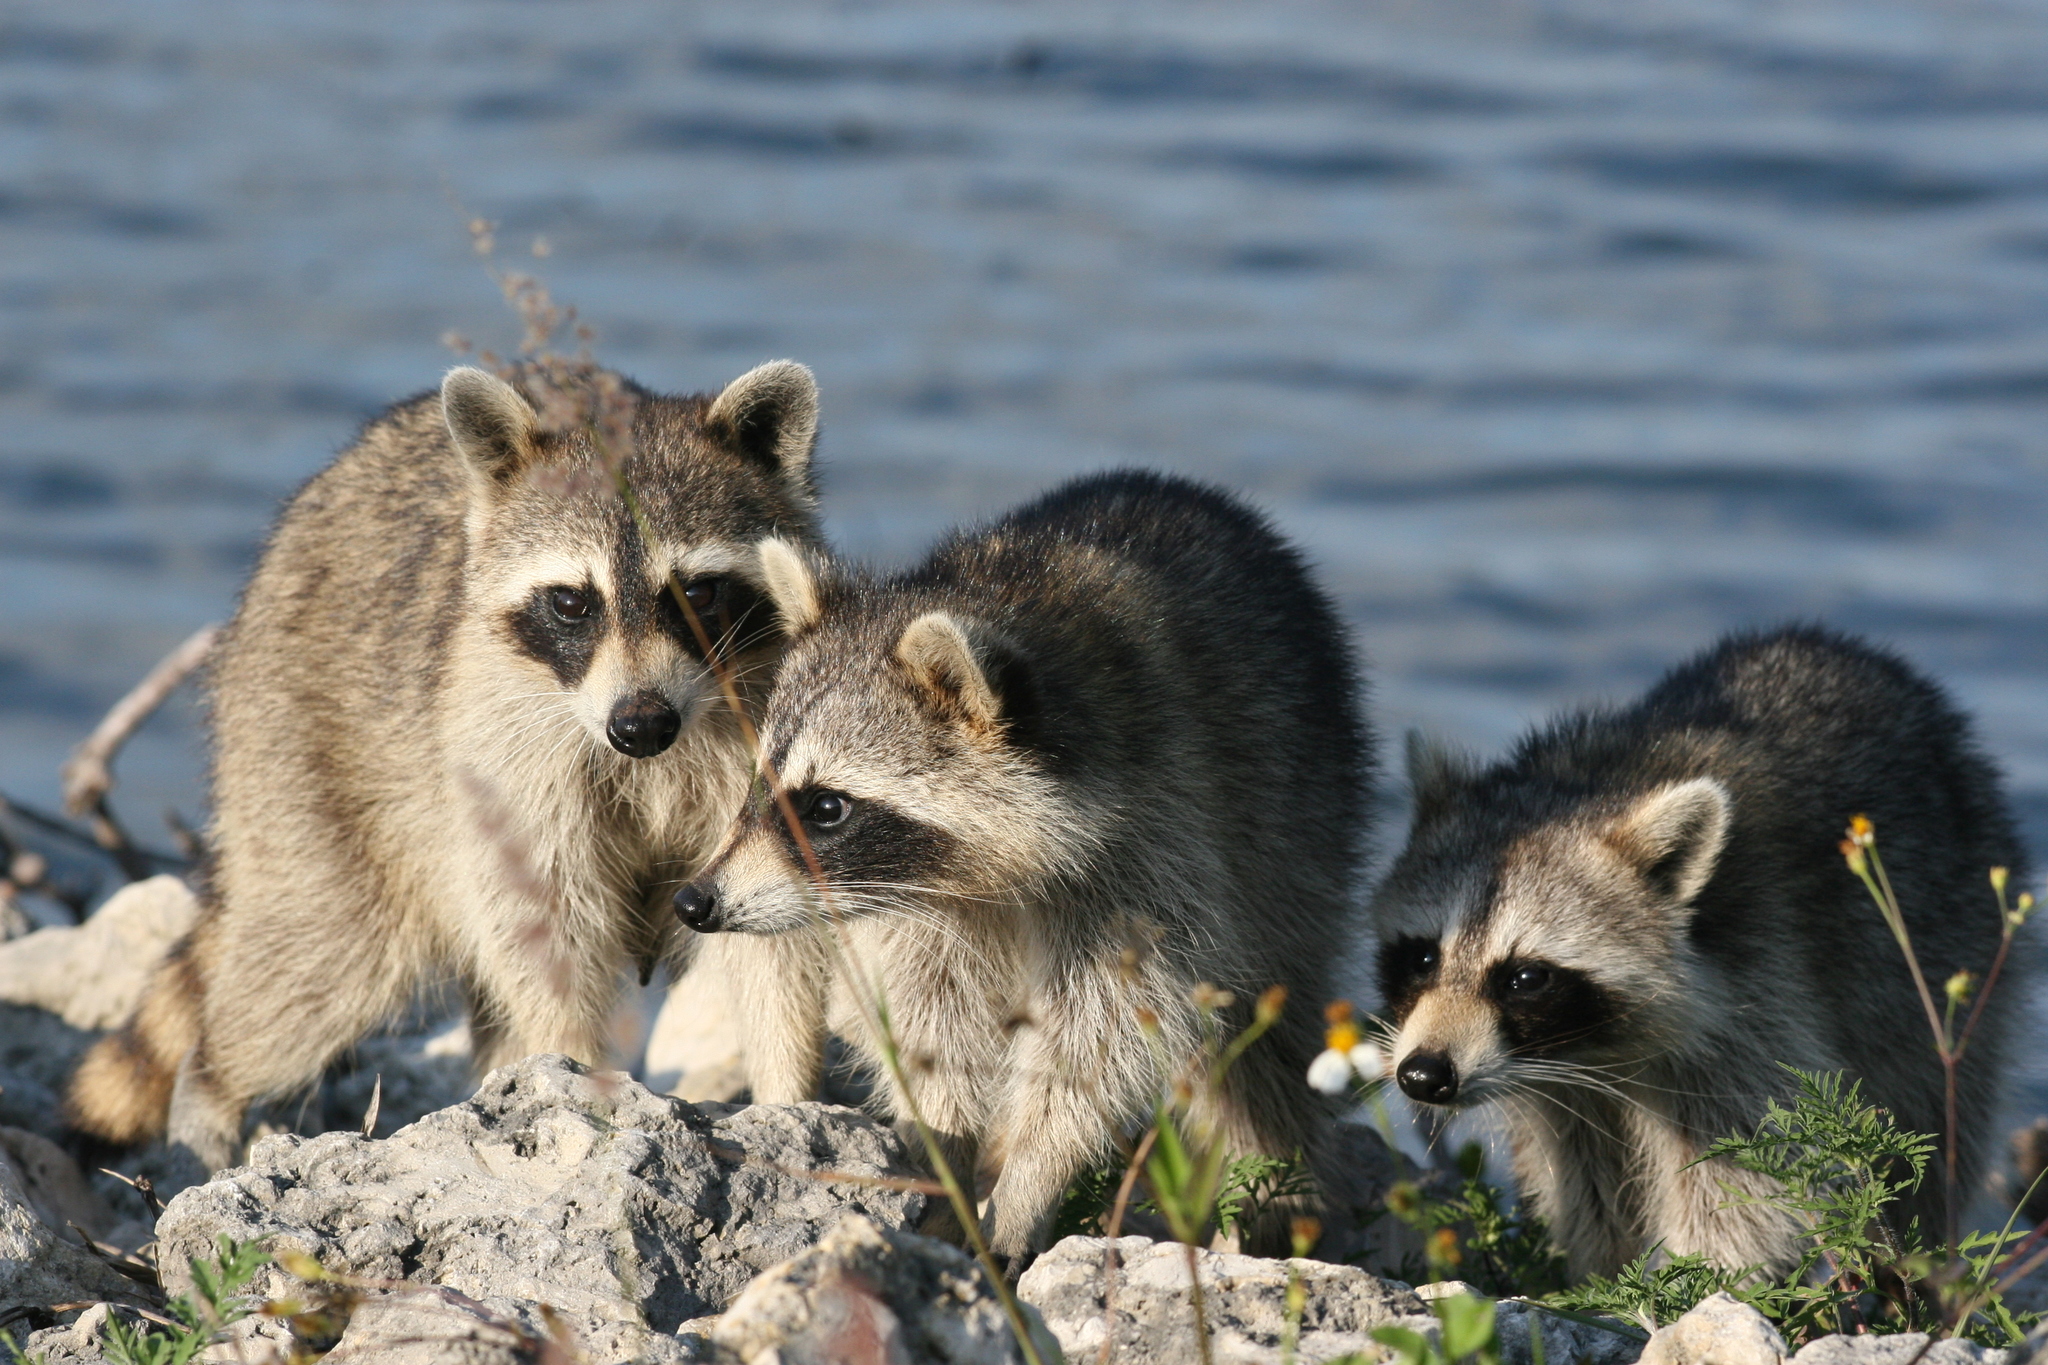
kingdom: Animalia
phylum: Chordata
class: Mammalia
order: Carnivora
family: Procyonidae
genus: Procyon
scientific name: Procyon lotor
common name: Raccoon
